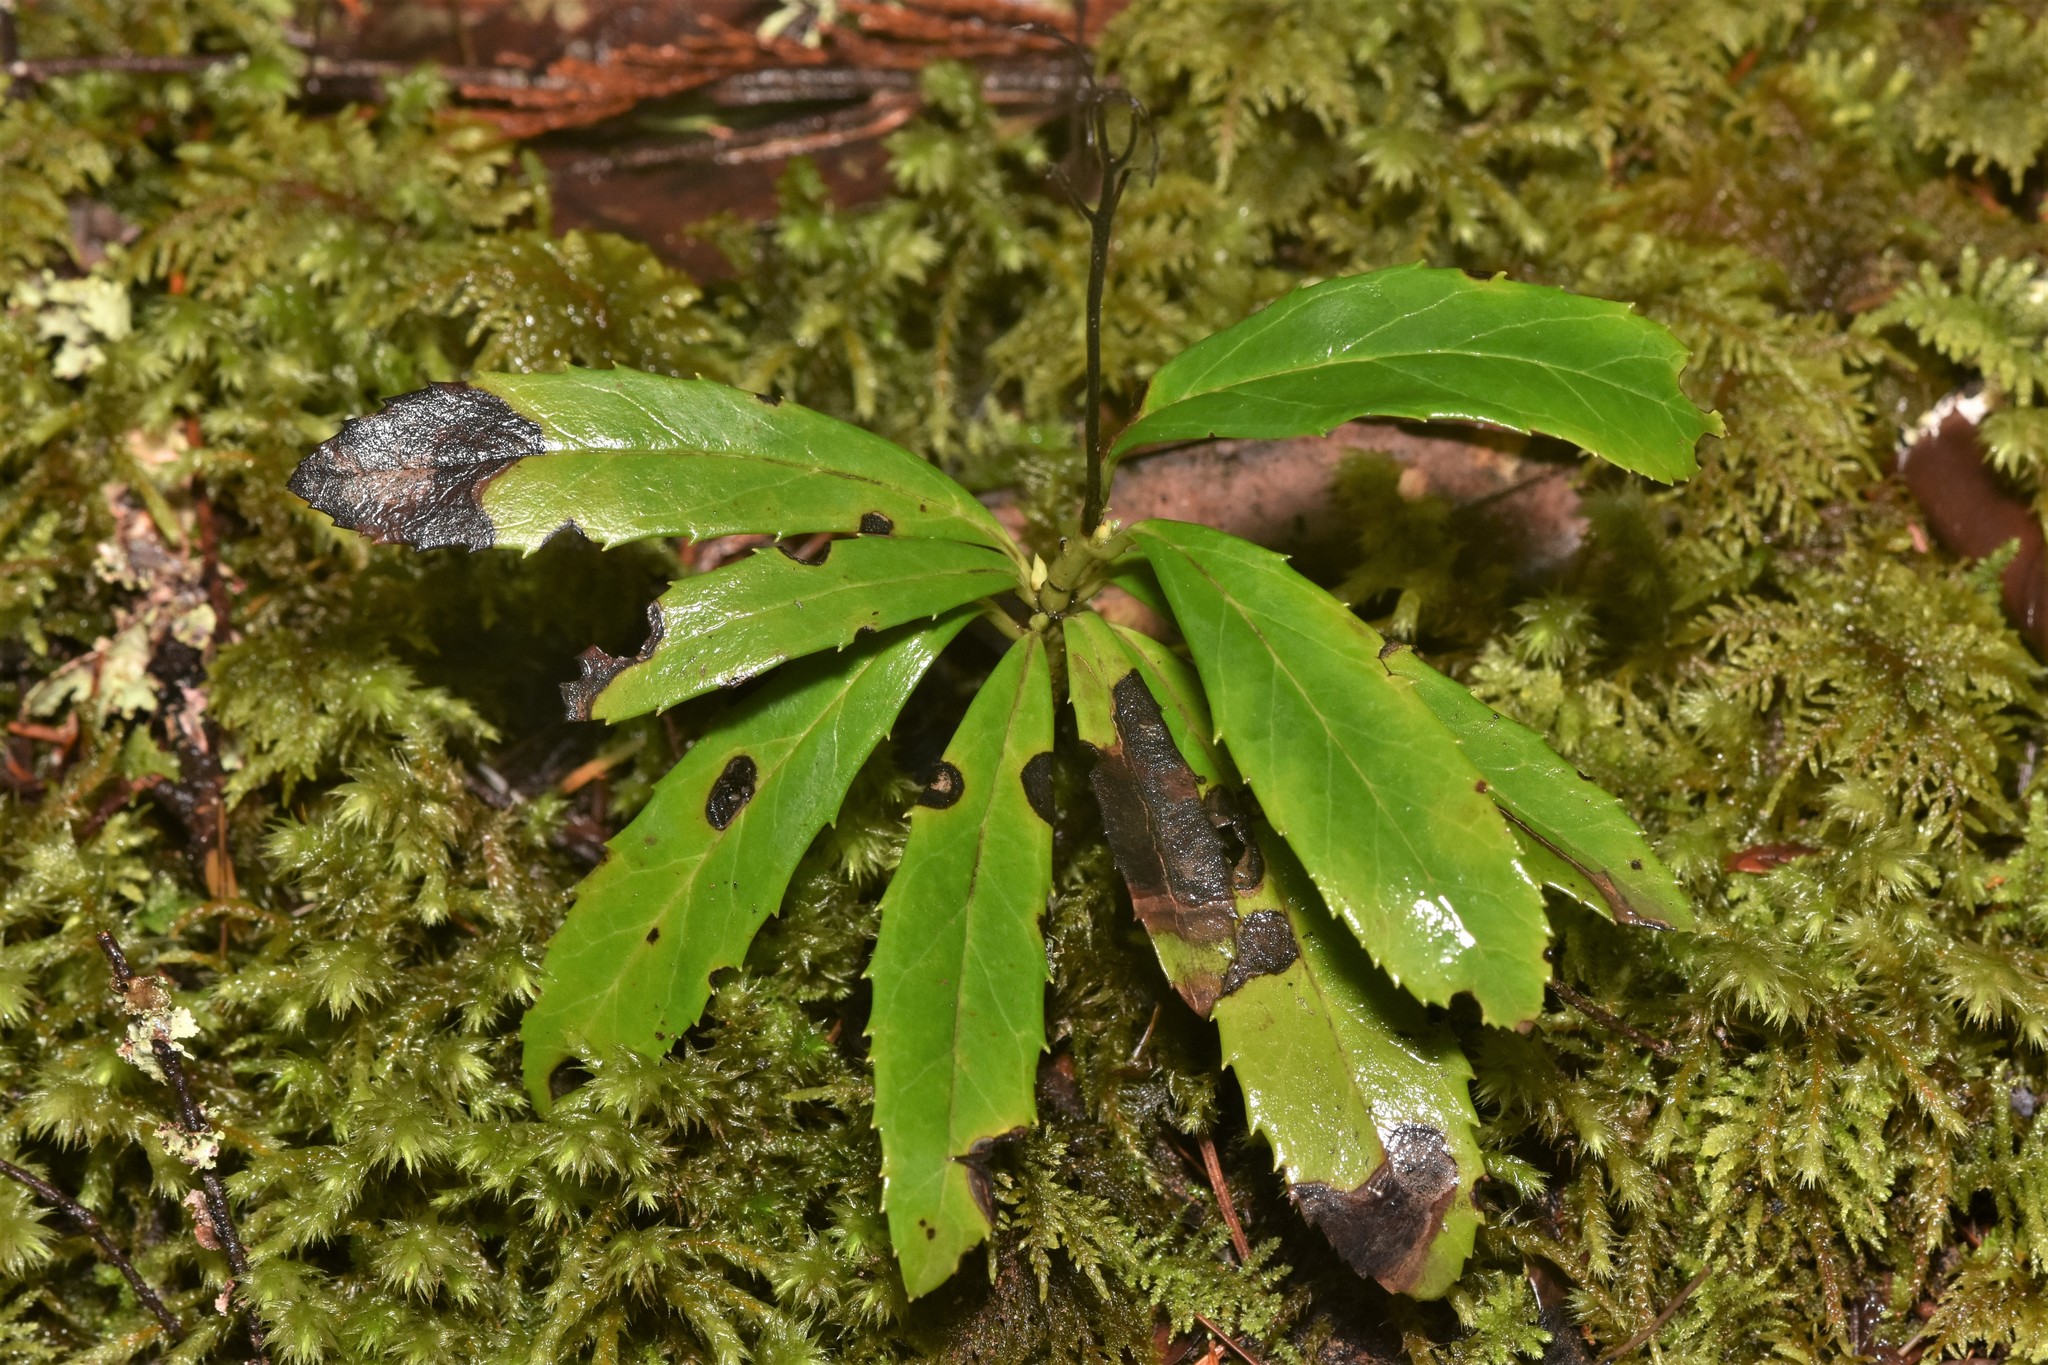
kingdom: Plantae
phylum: Tracheophyta
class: Magnoliopsida
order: Ericales
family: Ericaceae
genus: Chimaphila
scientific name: Chimaphila umbellata
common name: Pipsissewa
